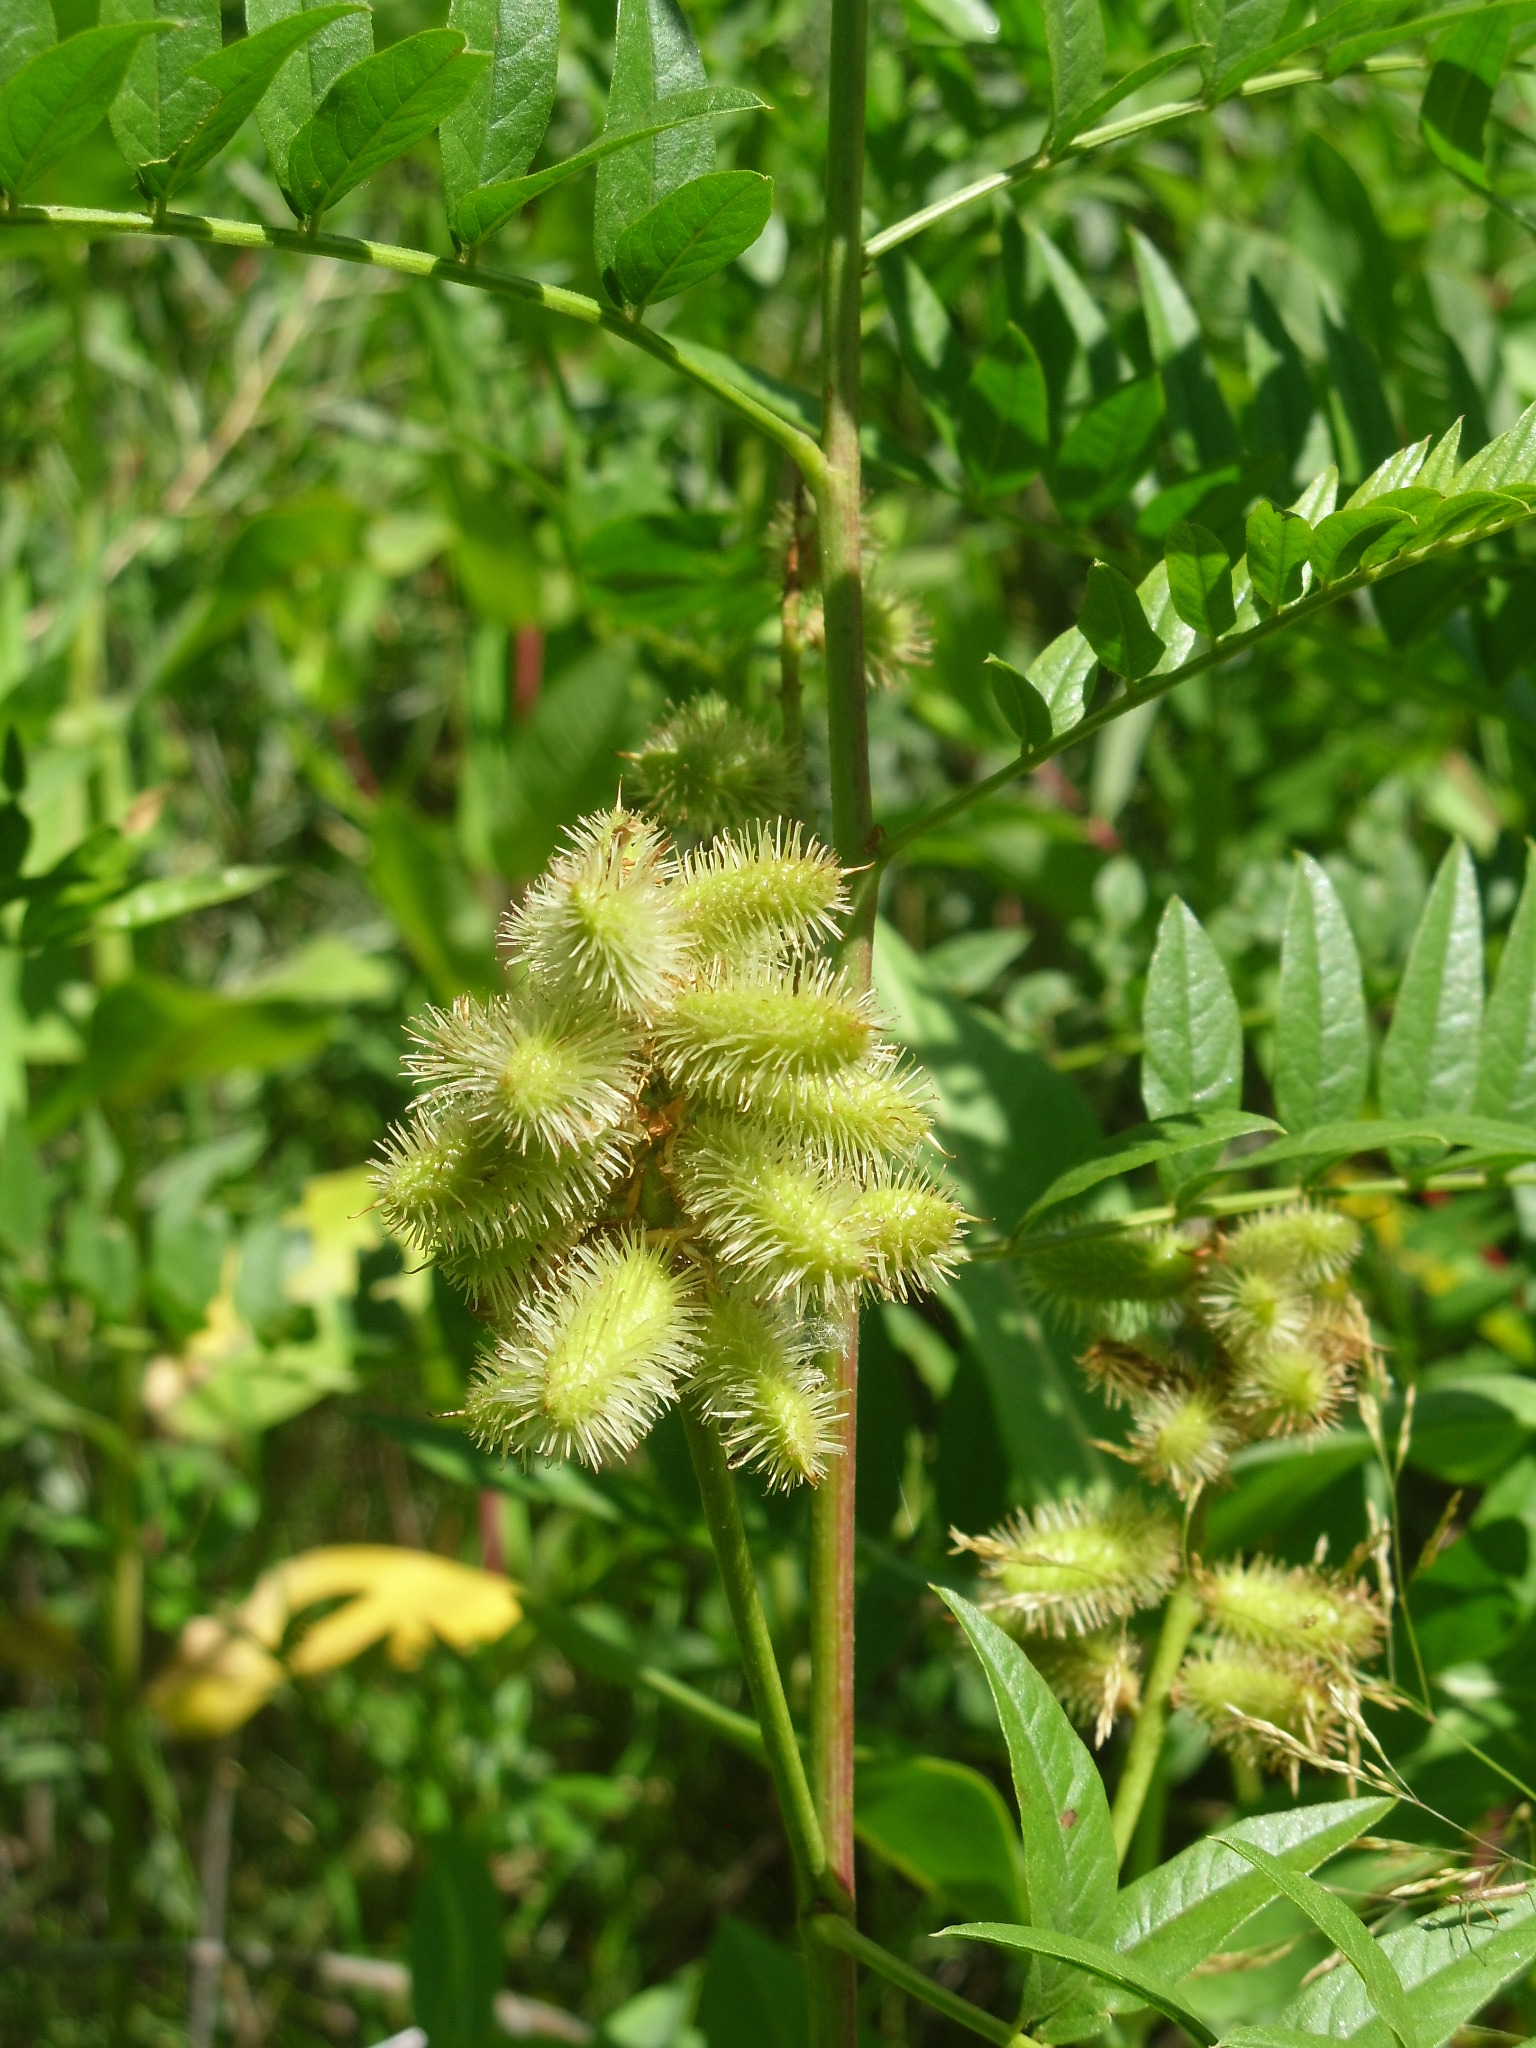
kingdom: Plantae
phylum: Tracheophyta
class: Magnoliopsida
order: Fabales
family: Fabaceae
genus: Glycyrrhiza
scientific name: Glycyrrhiza lepidota
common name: American liquorice
